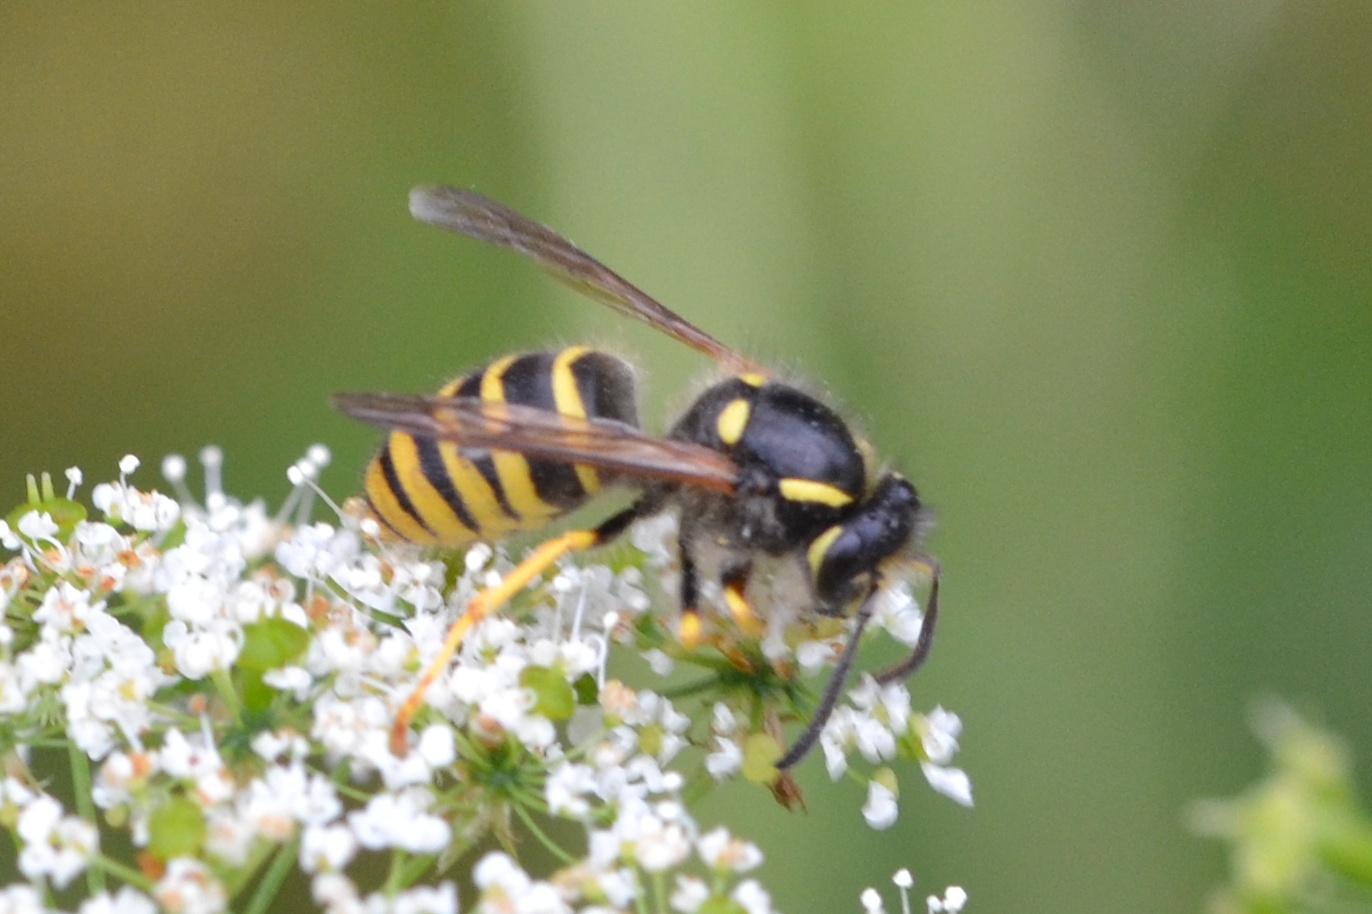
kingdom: Animalia
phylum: Arthropoda
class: Insecta
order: Hymenoptera
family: Vespidae
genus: Dolichovespula
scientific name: Dolichovespula sylvestris
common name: Tree wasp
